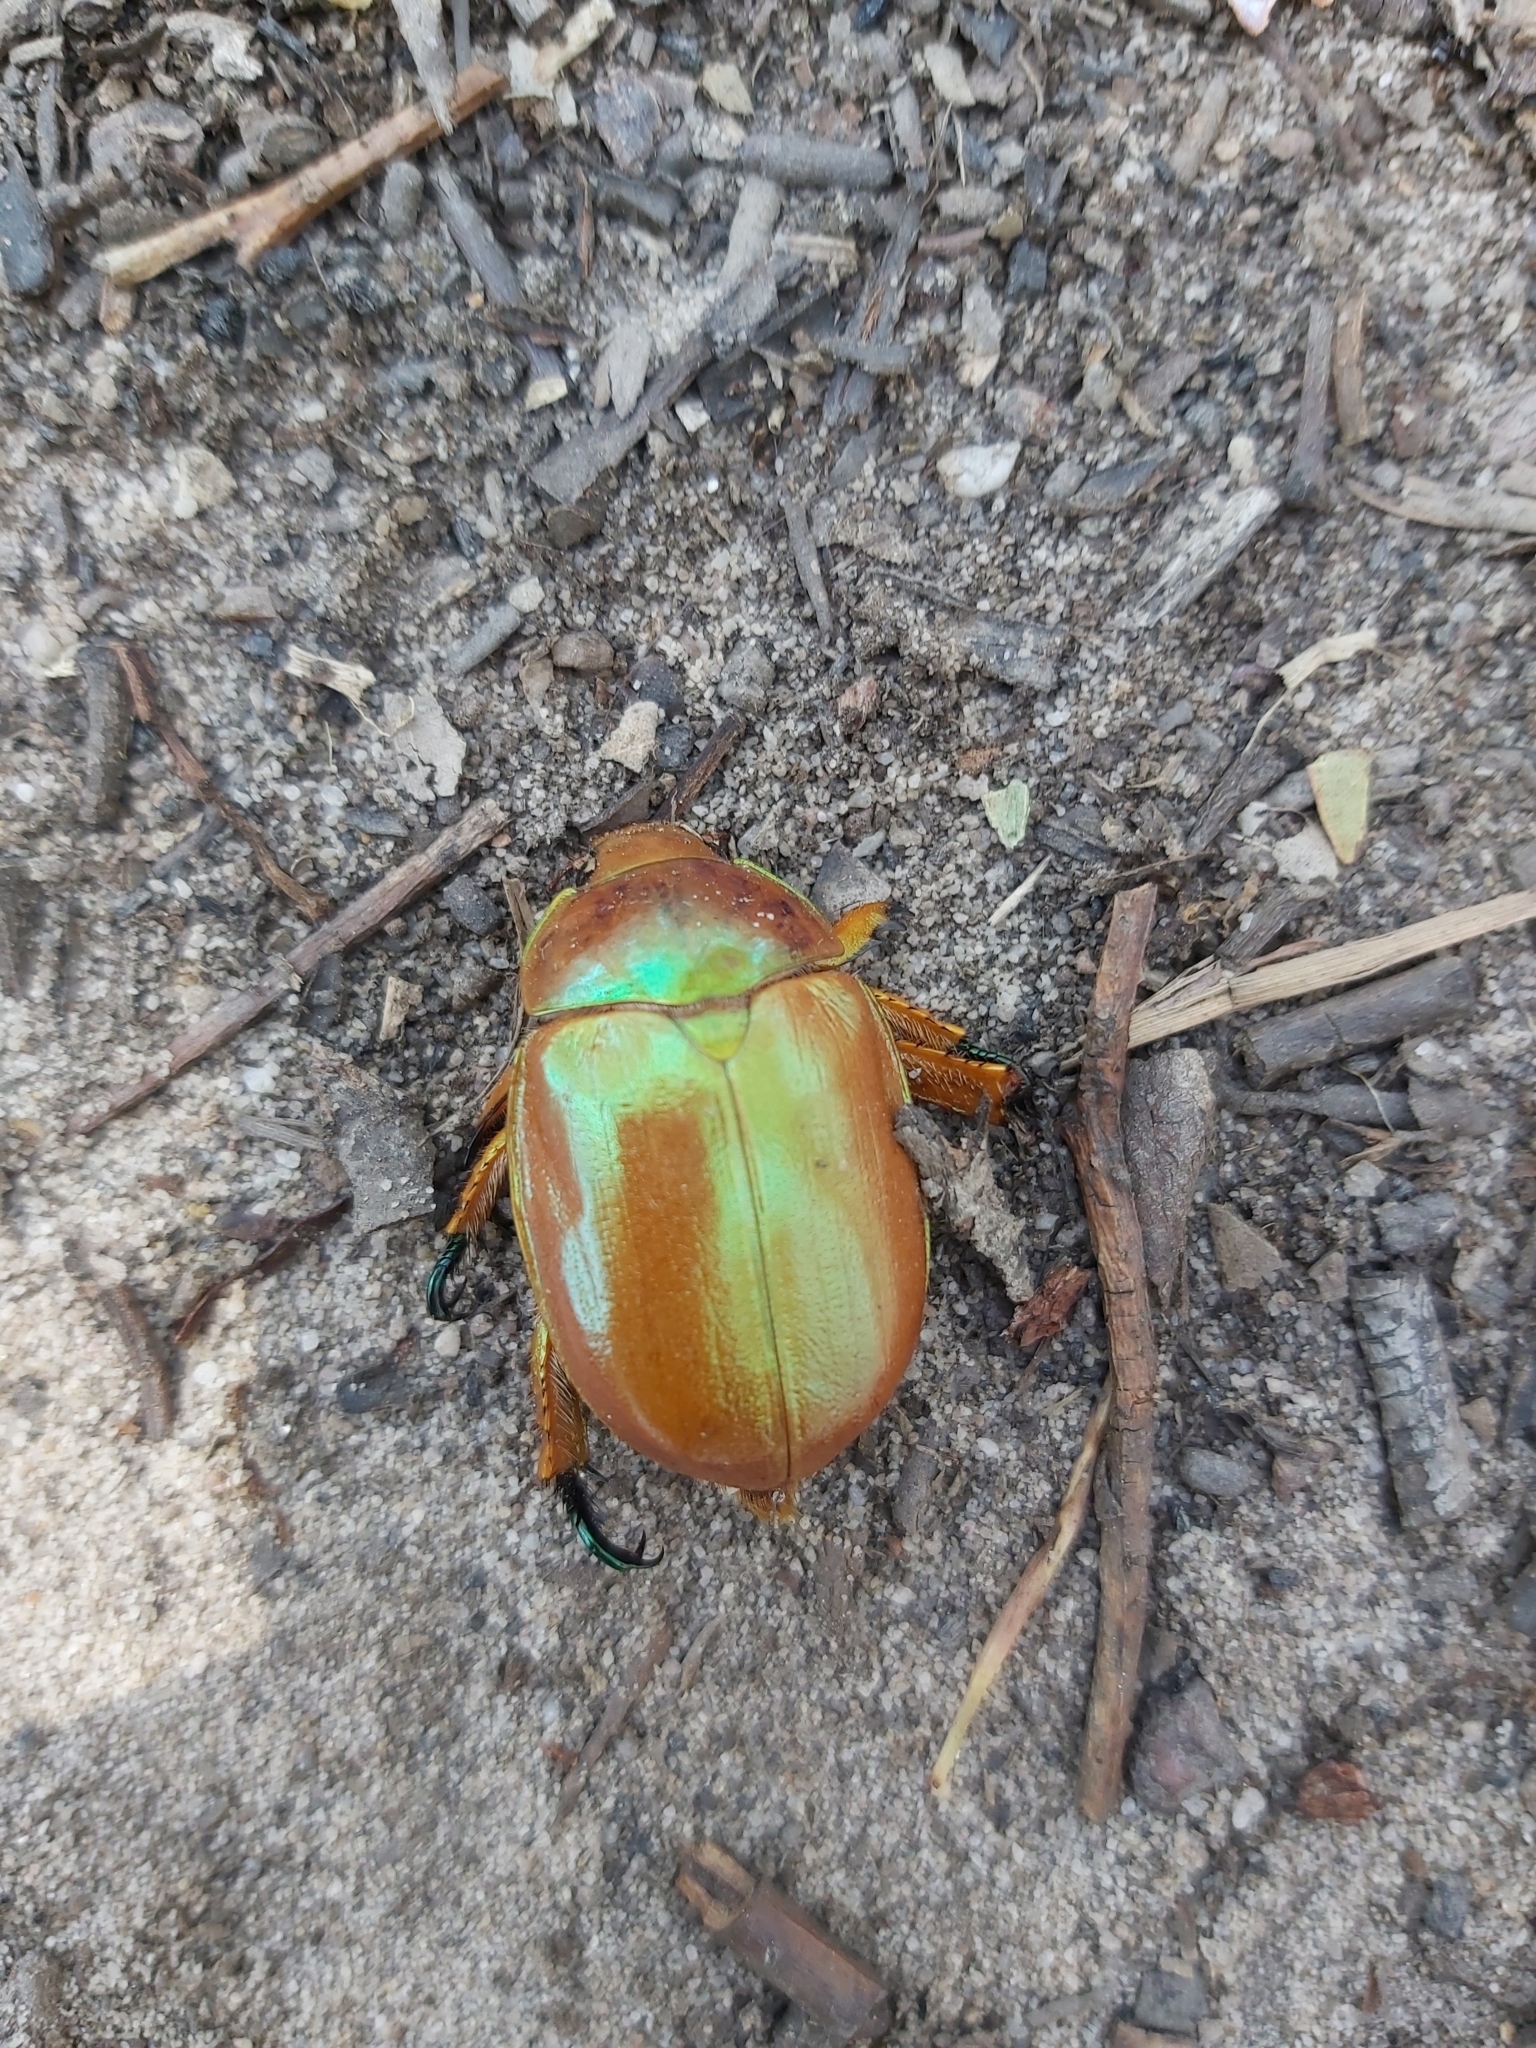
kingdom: Animalia
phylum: Arthropoda
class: Insecta
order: Coleoptera
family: Scarabaeidae
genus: Anoplognathus
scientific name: Anoplognathus viriditarsis
